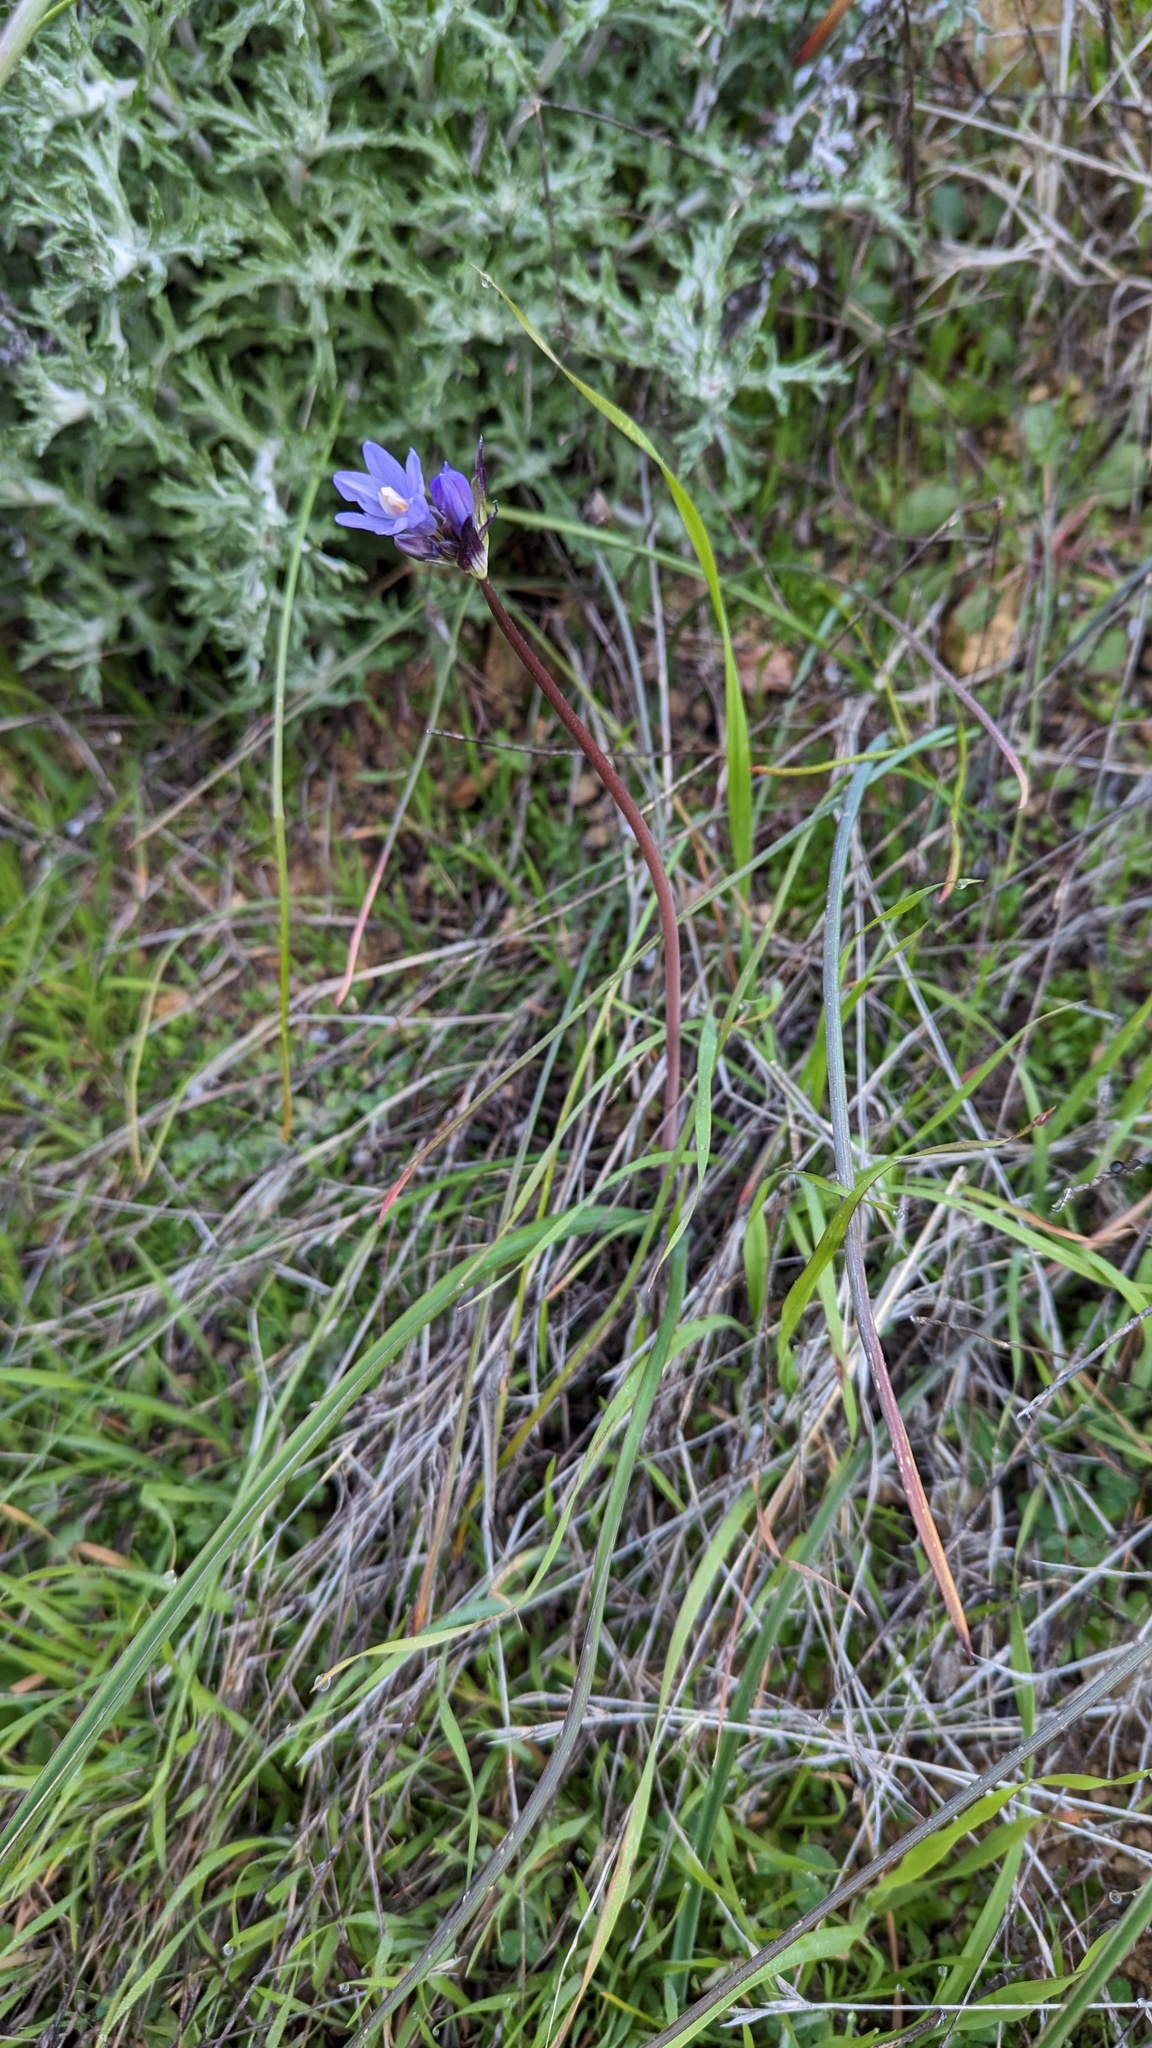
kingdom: Plantae
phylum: Tracheophyta
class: Liliopsida
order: Asparagales
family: Asparagaceae
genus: Dipterostemon
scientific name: Dipterostemon capitatus
